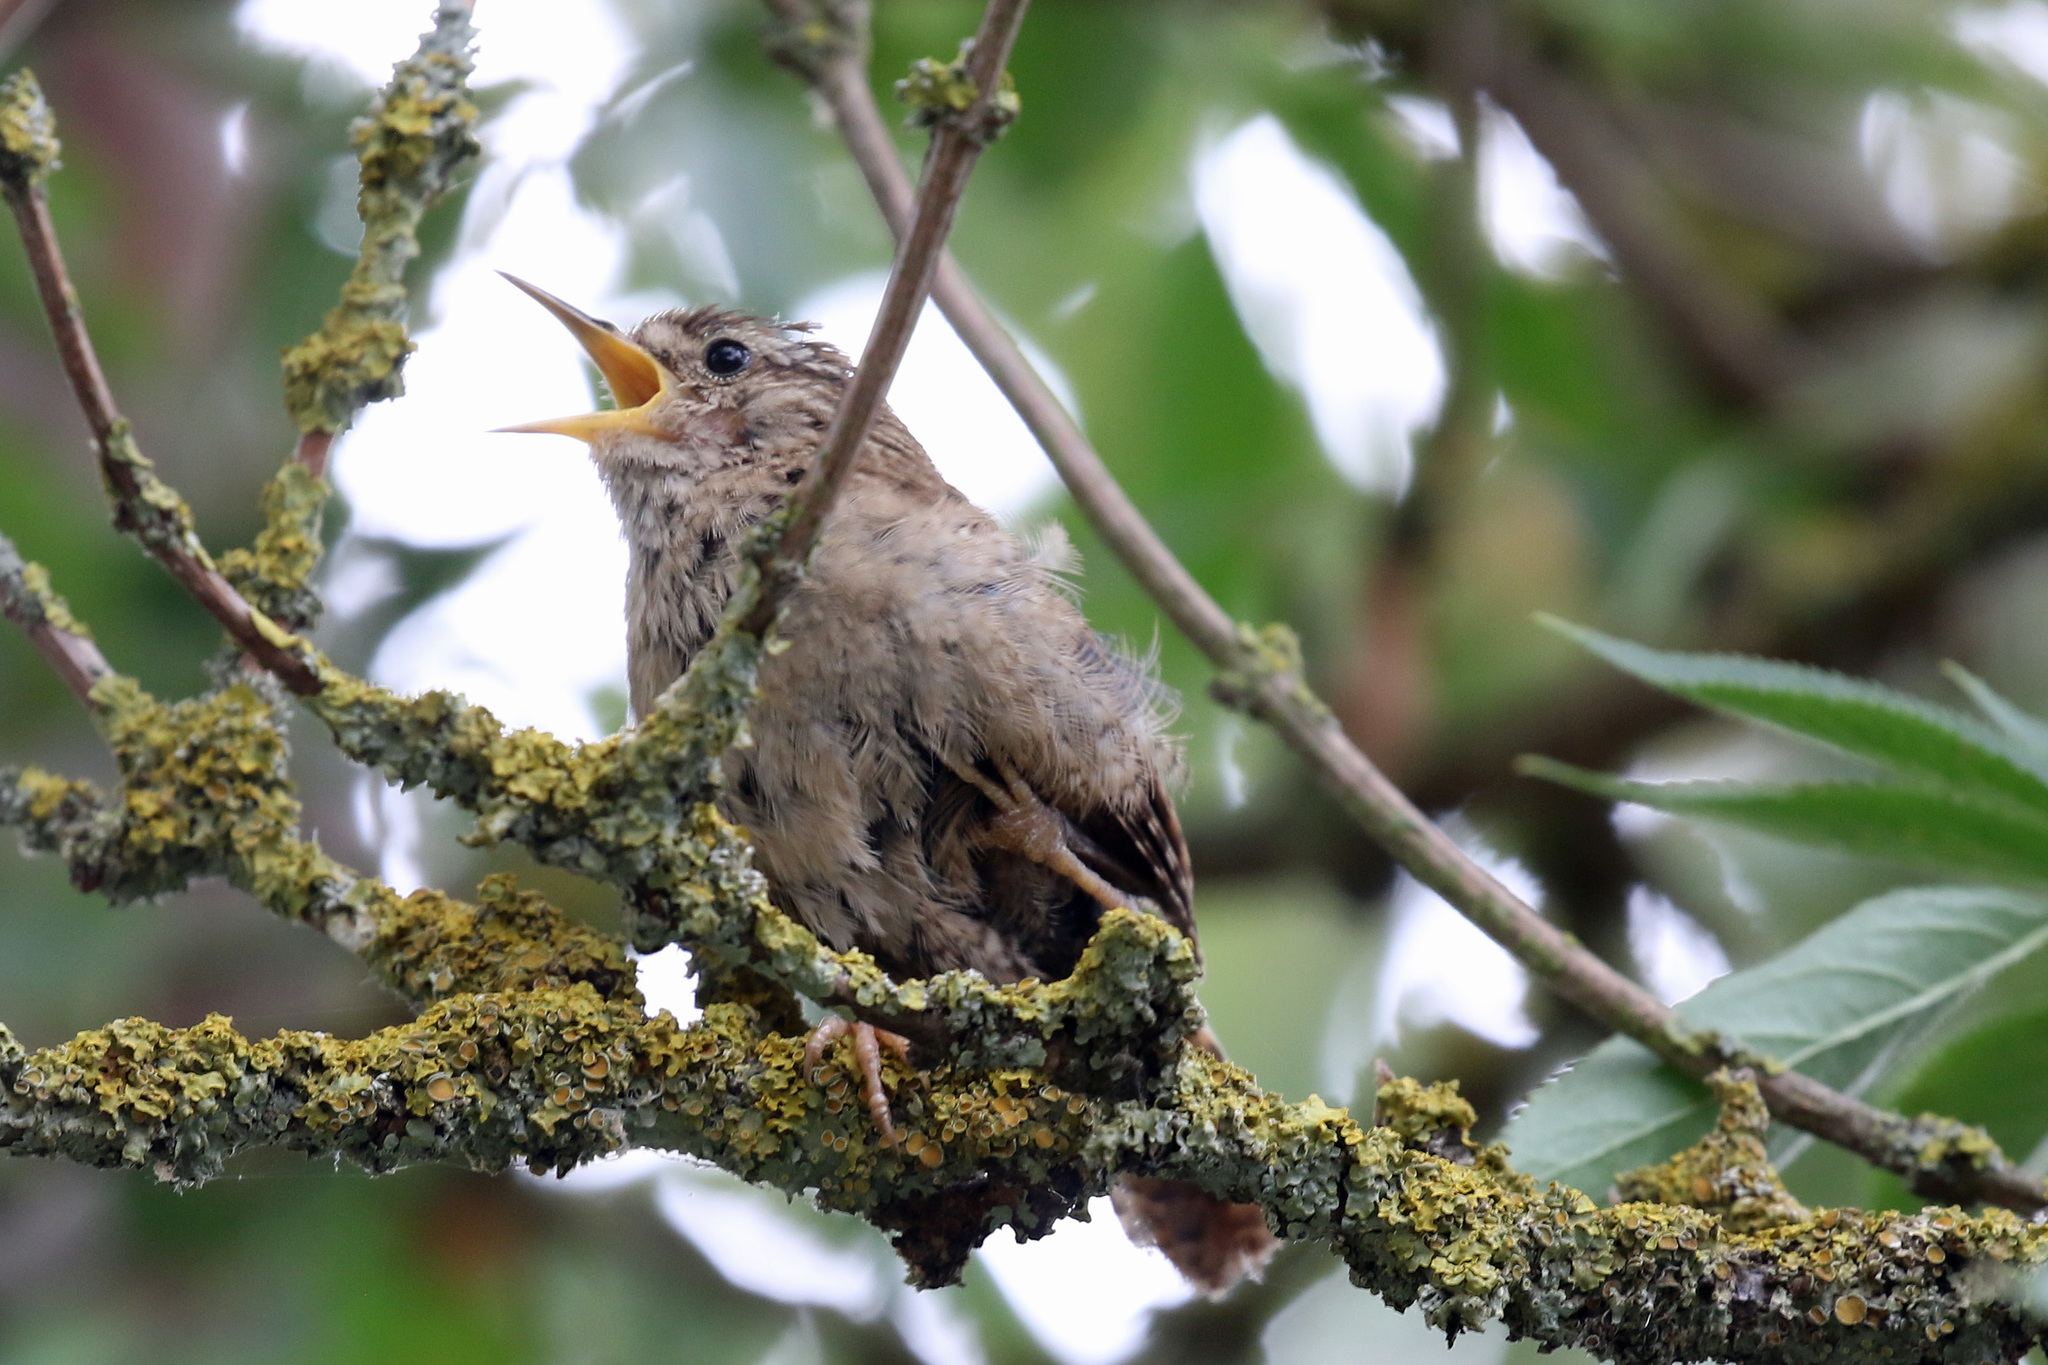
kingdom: Animalia
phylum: Chordata
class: Aves
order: Passeriformes
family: Troglodytidae
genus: Troglodytes
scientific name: Troglodytes troglodytes
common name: Eurasian wren
